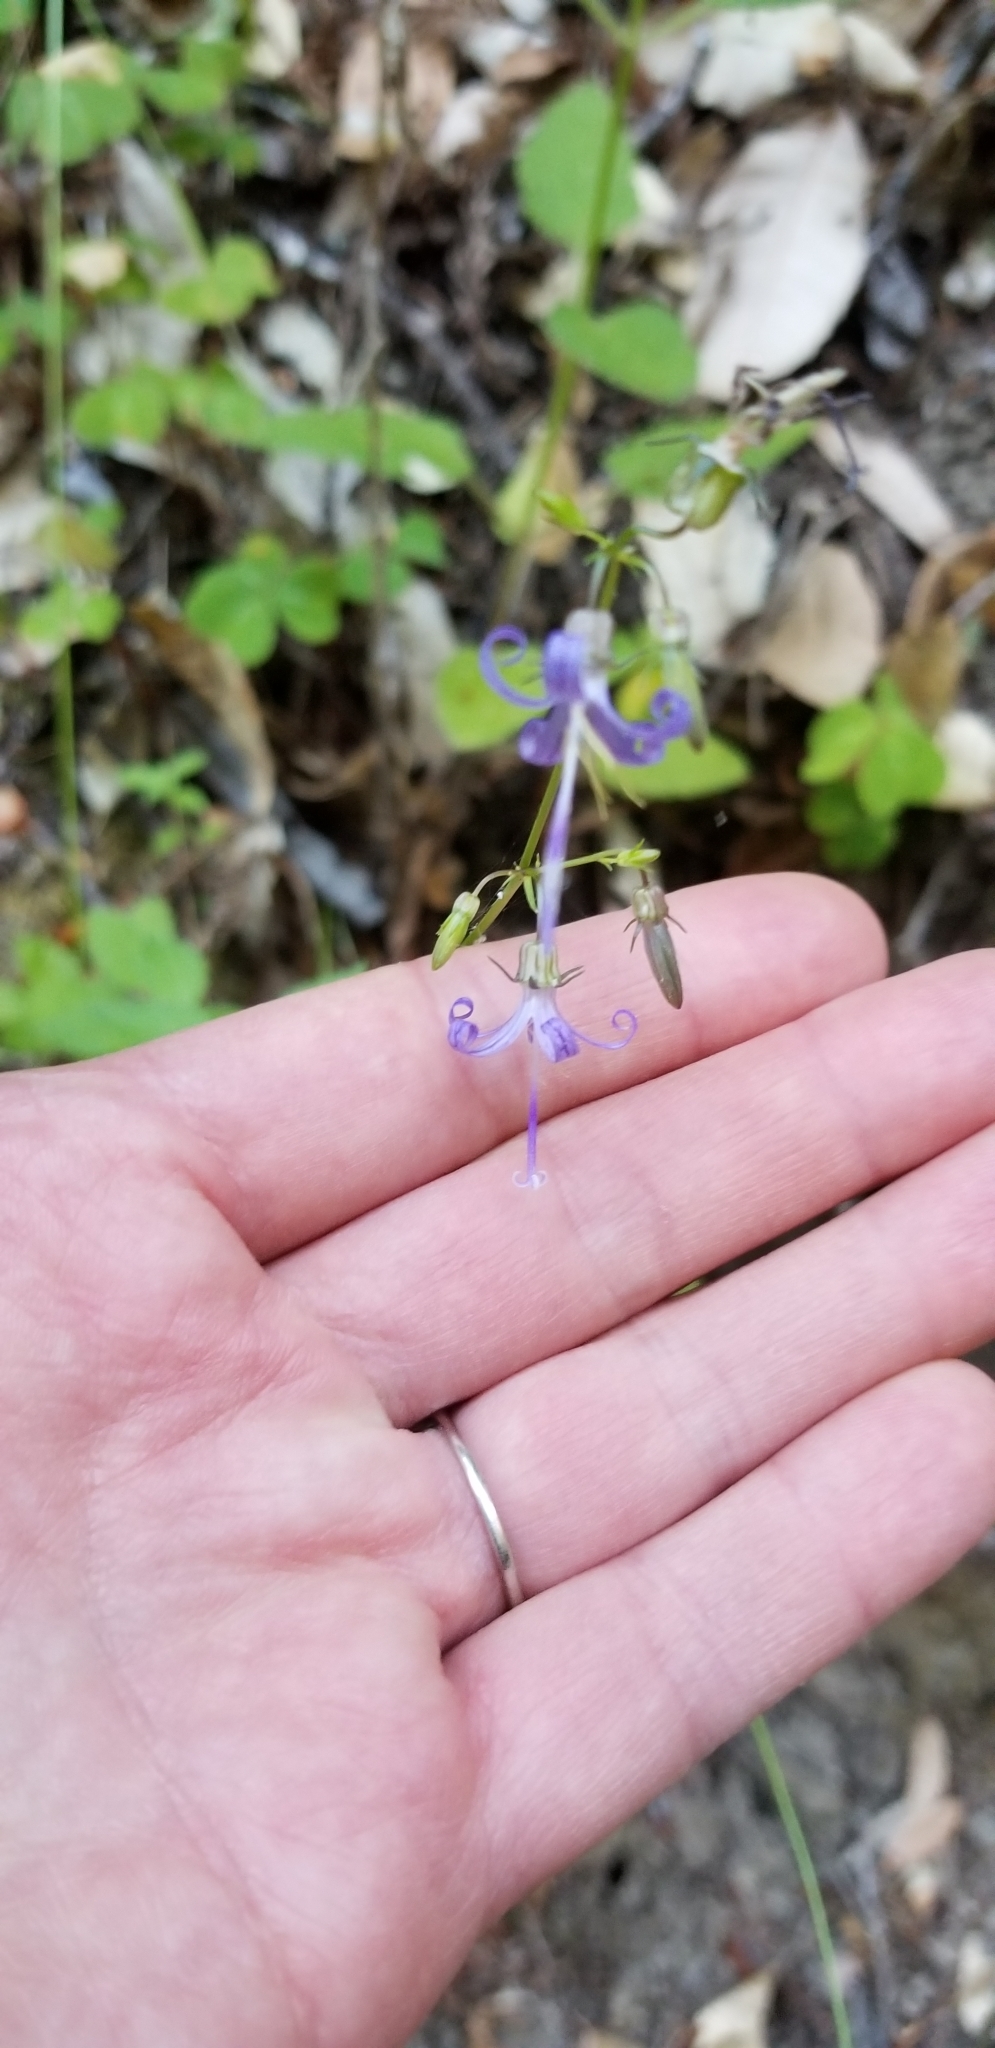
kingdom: Plantae
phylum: Tracheophyta
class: Magnoliopsida
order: Asterales
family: Campanulaceae
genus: Smithiastrum
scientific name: Smithiastrum prenanthoides
